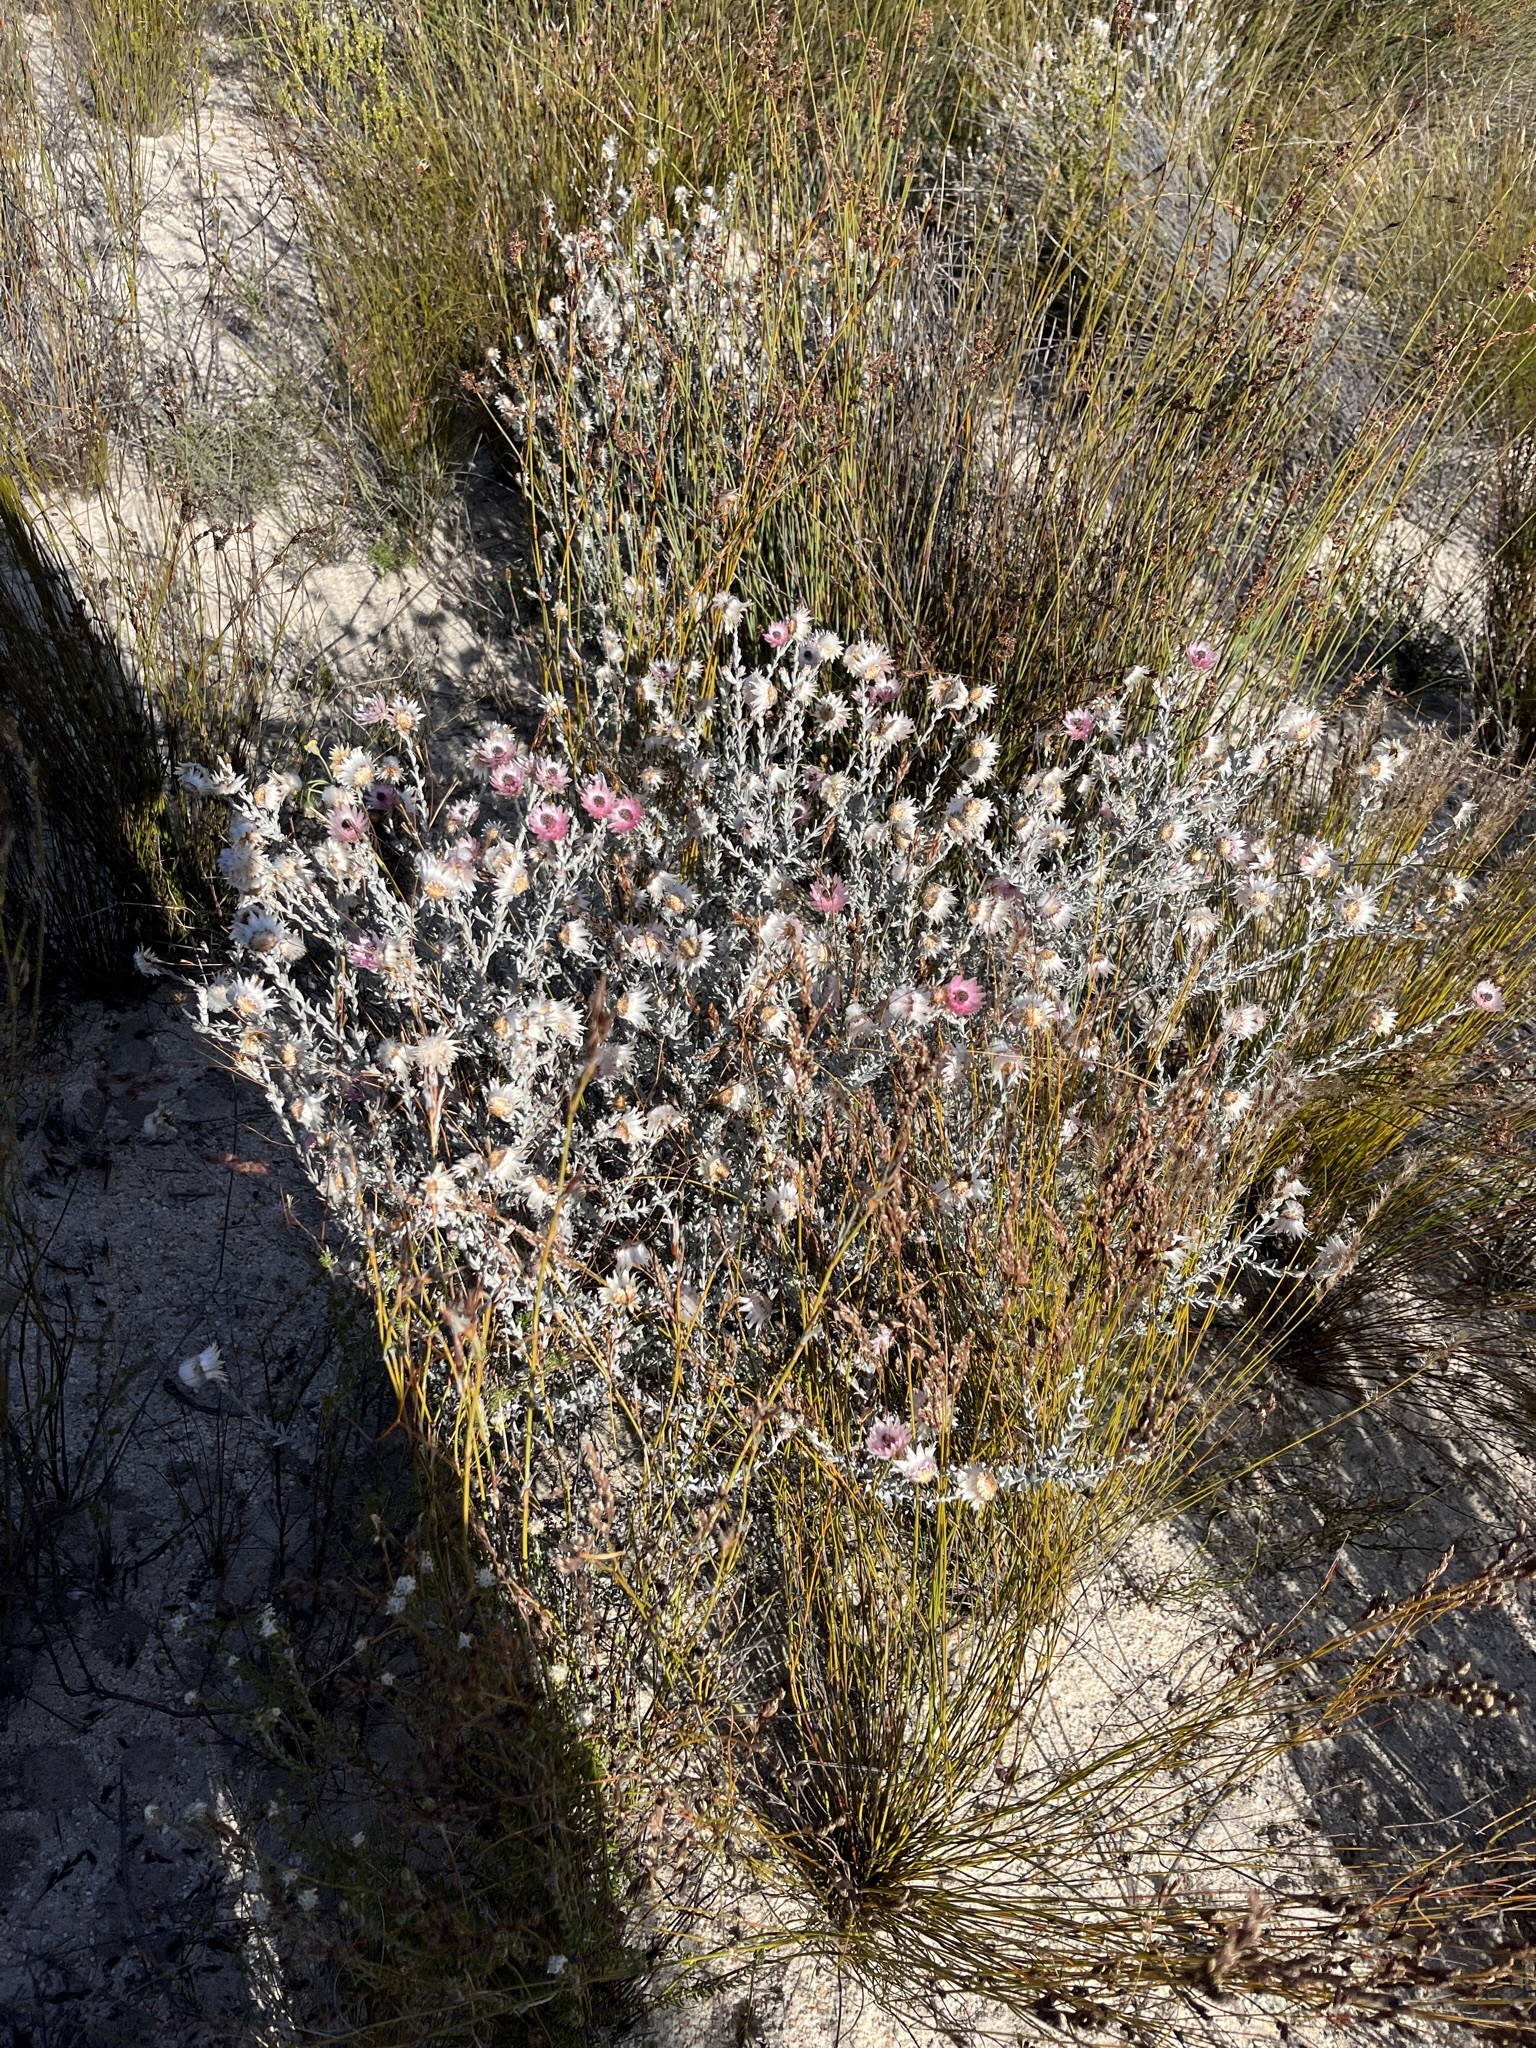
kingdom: Plantae
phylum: Tracheophyta
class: Magnoliopsida
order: Asterales
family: Asteraceae
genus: Syncarpha
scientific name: Syncarpha canescens
